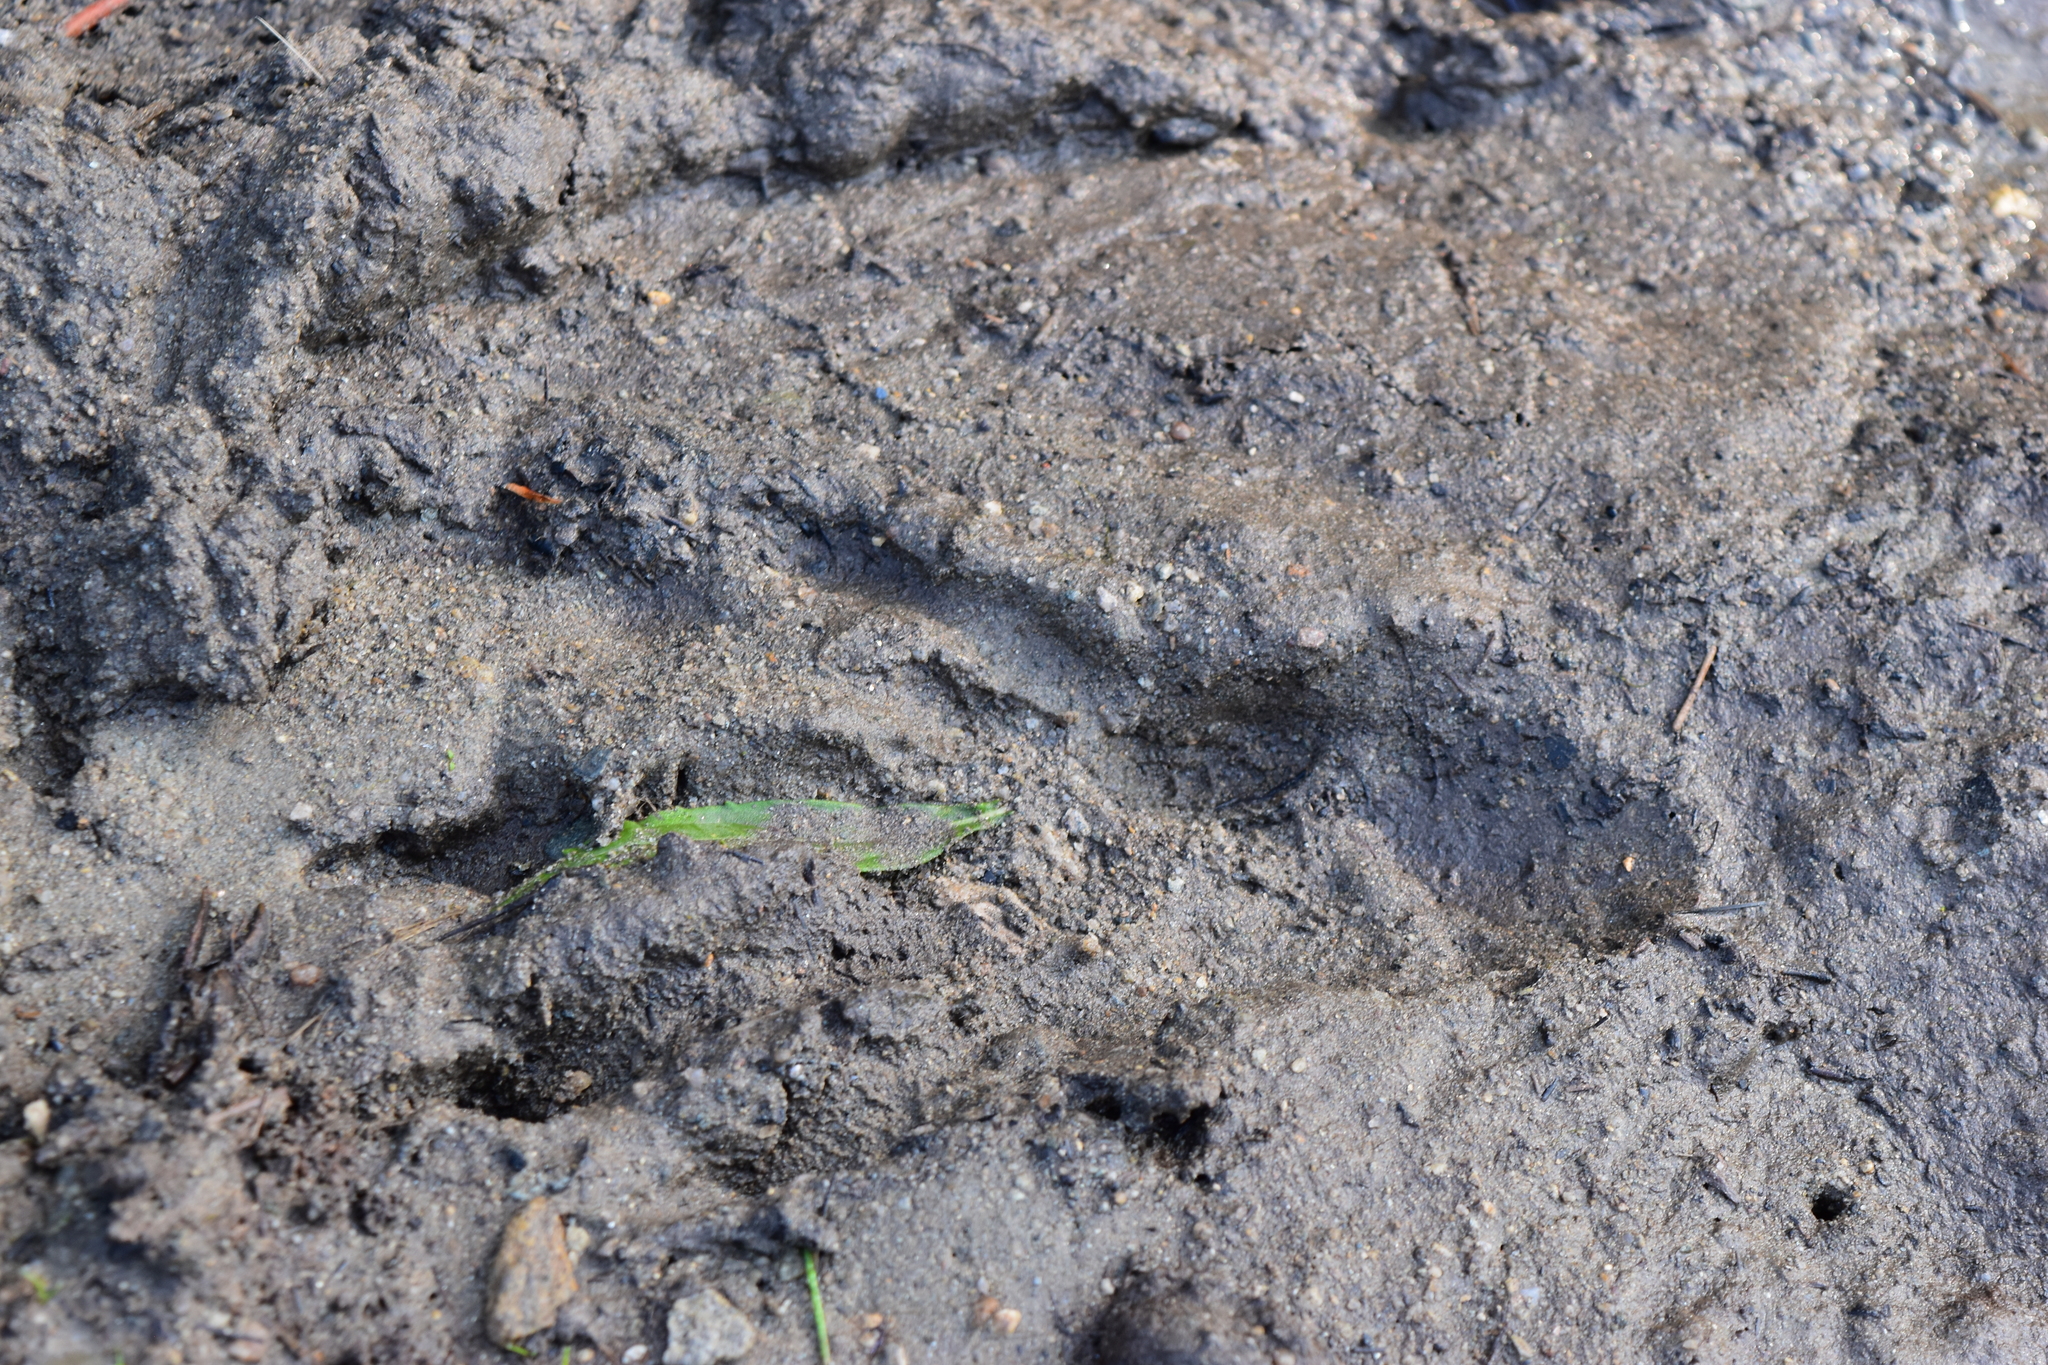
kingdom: Animalia
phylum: Chordata
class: Mammalia
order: Rodentia
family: Castoridae
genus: Castor
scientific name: Castor canadensis
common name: American beaver
